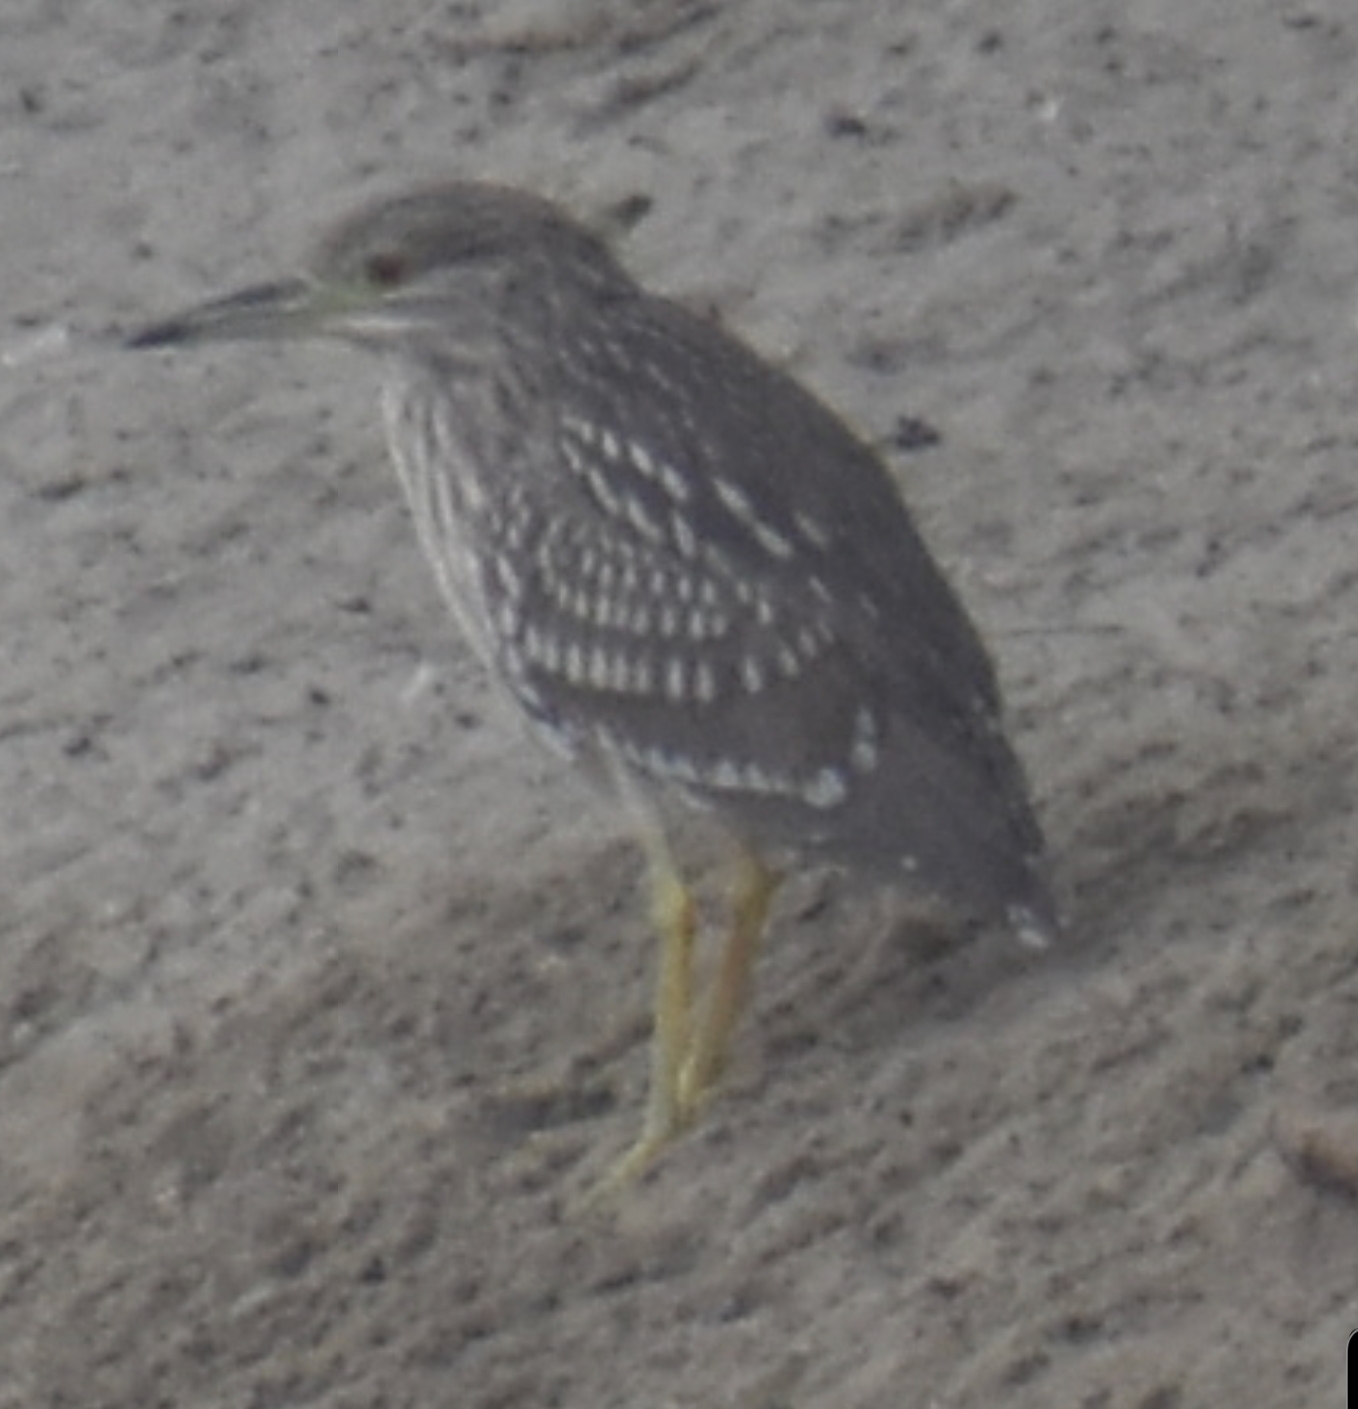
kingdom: Animalia
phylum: Chordata
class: Aves
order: Pelecaniformes
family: Ardeidae
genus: Nycticorax
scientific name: Nycticorax nycticorax
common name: Black-crowned night heron
